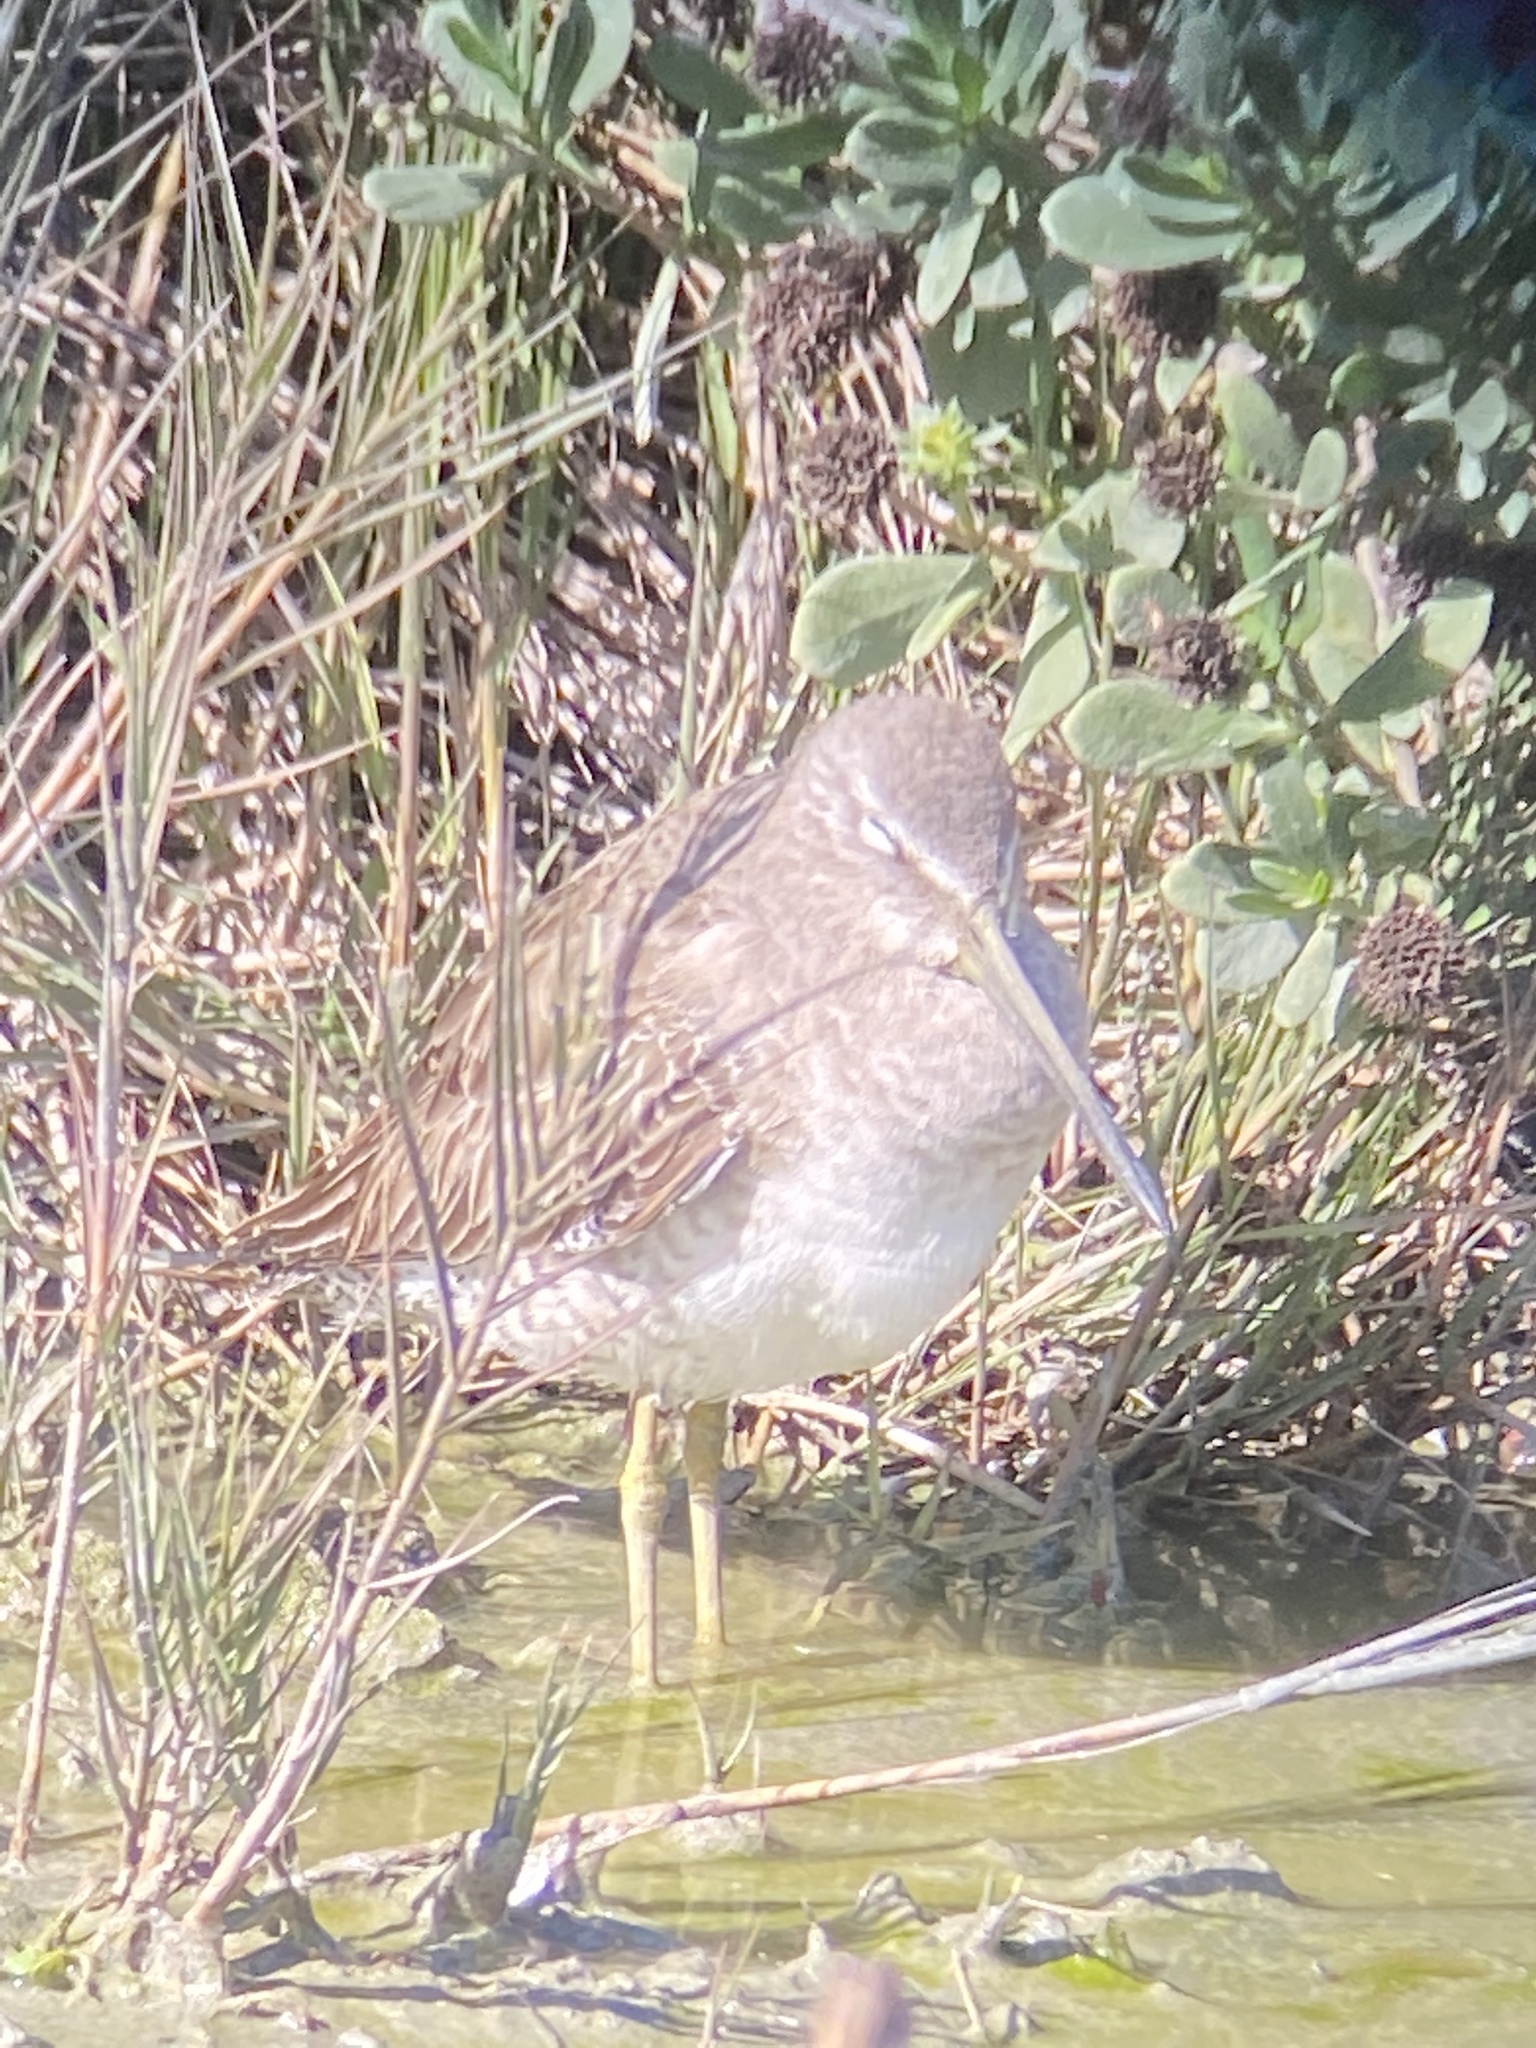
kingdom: Animalia
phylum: Chordata
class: Aves
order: Charadriiformes
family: Scolopacidae
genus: Limnodromus
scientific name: Limnodromus
